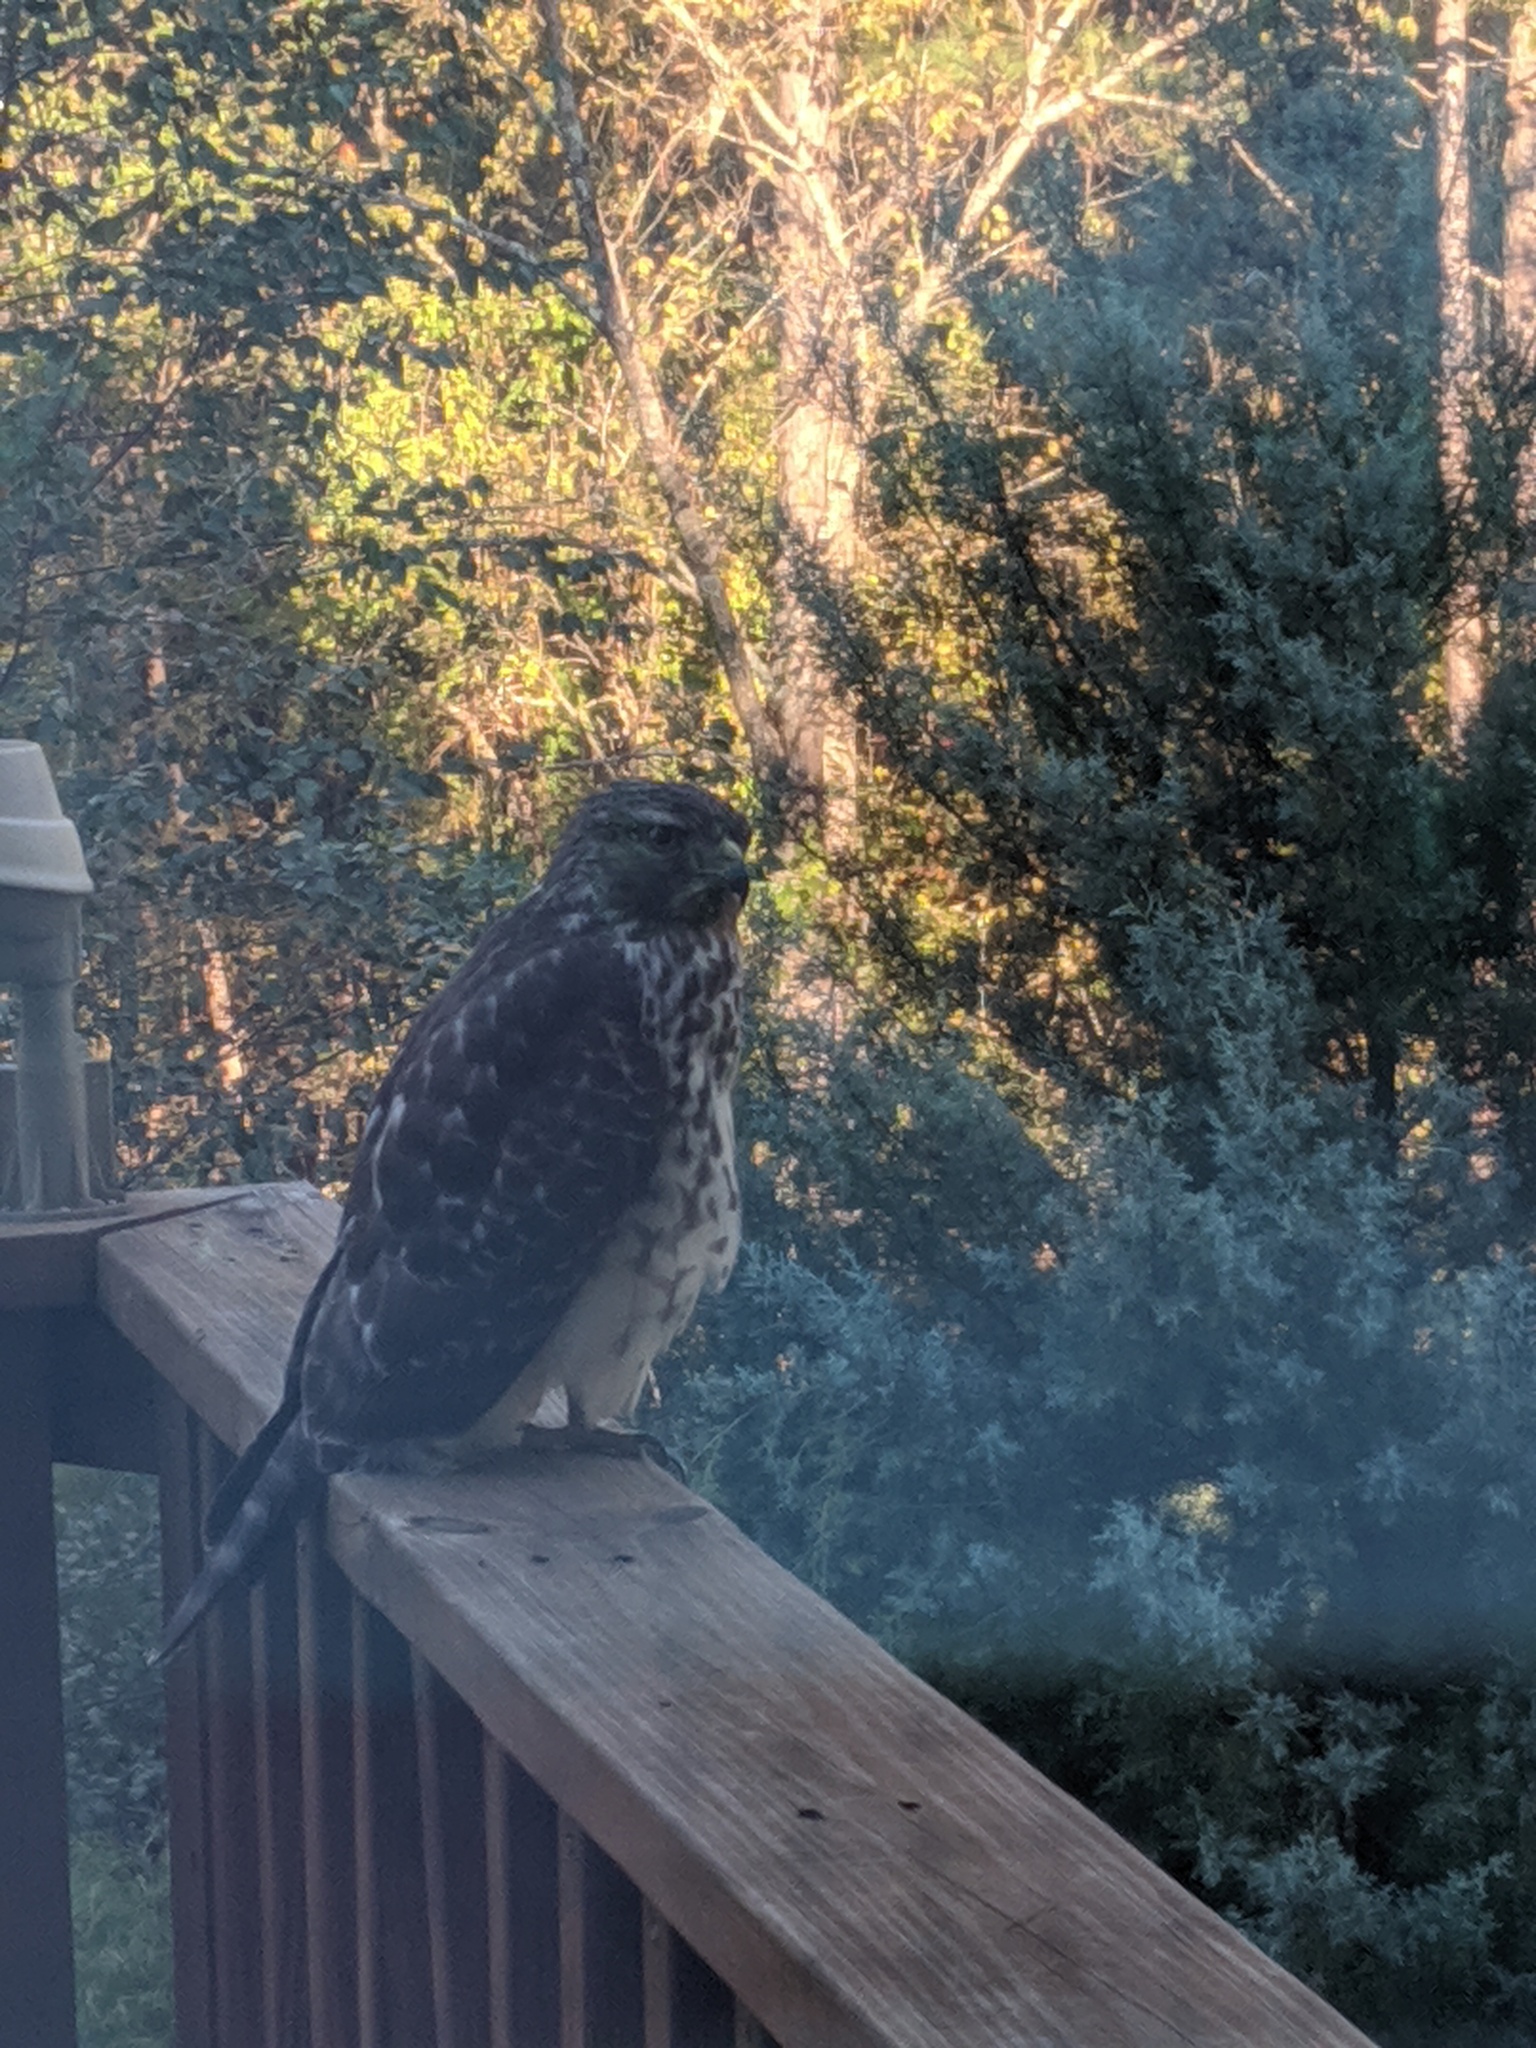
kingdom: Animalia
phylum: Chordata
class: Aves
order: Accipitriformes
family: Accipitridae
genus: Buteo
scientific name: Buteo lineatus
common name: Red-shouldered hawk
